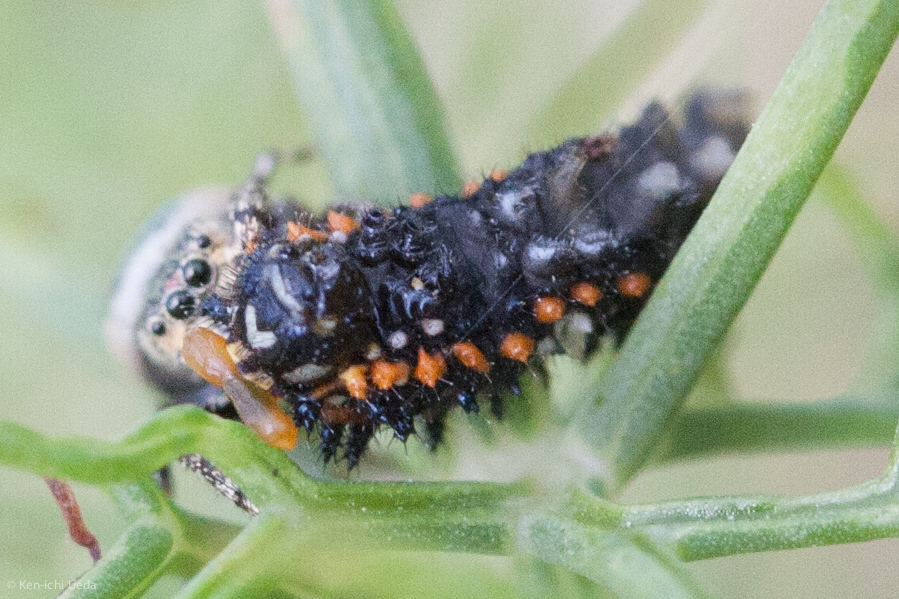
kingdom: Animalia
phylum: Arthropoda
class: Insecta
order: Lepidoptera
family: Papilionidae
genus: Papilio
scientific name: Papilio zelicaon
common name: Anise swallowtail
